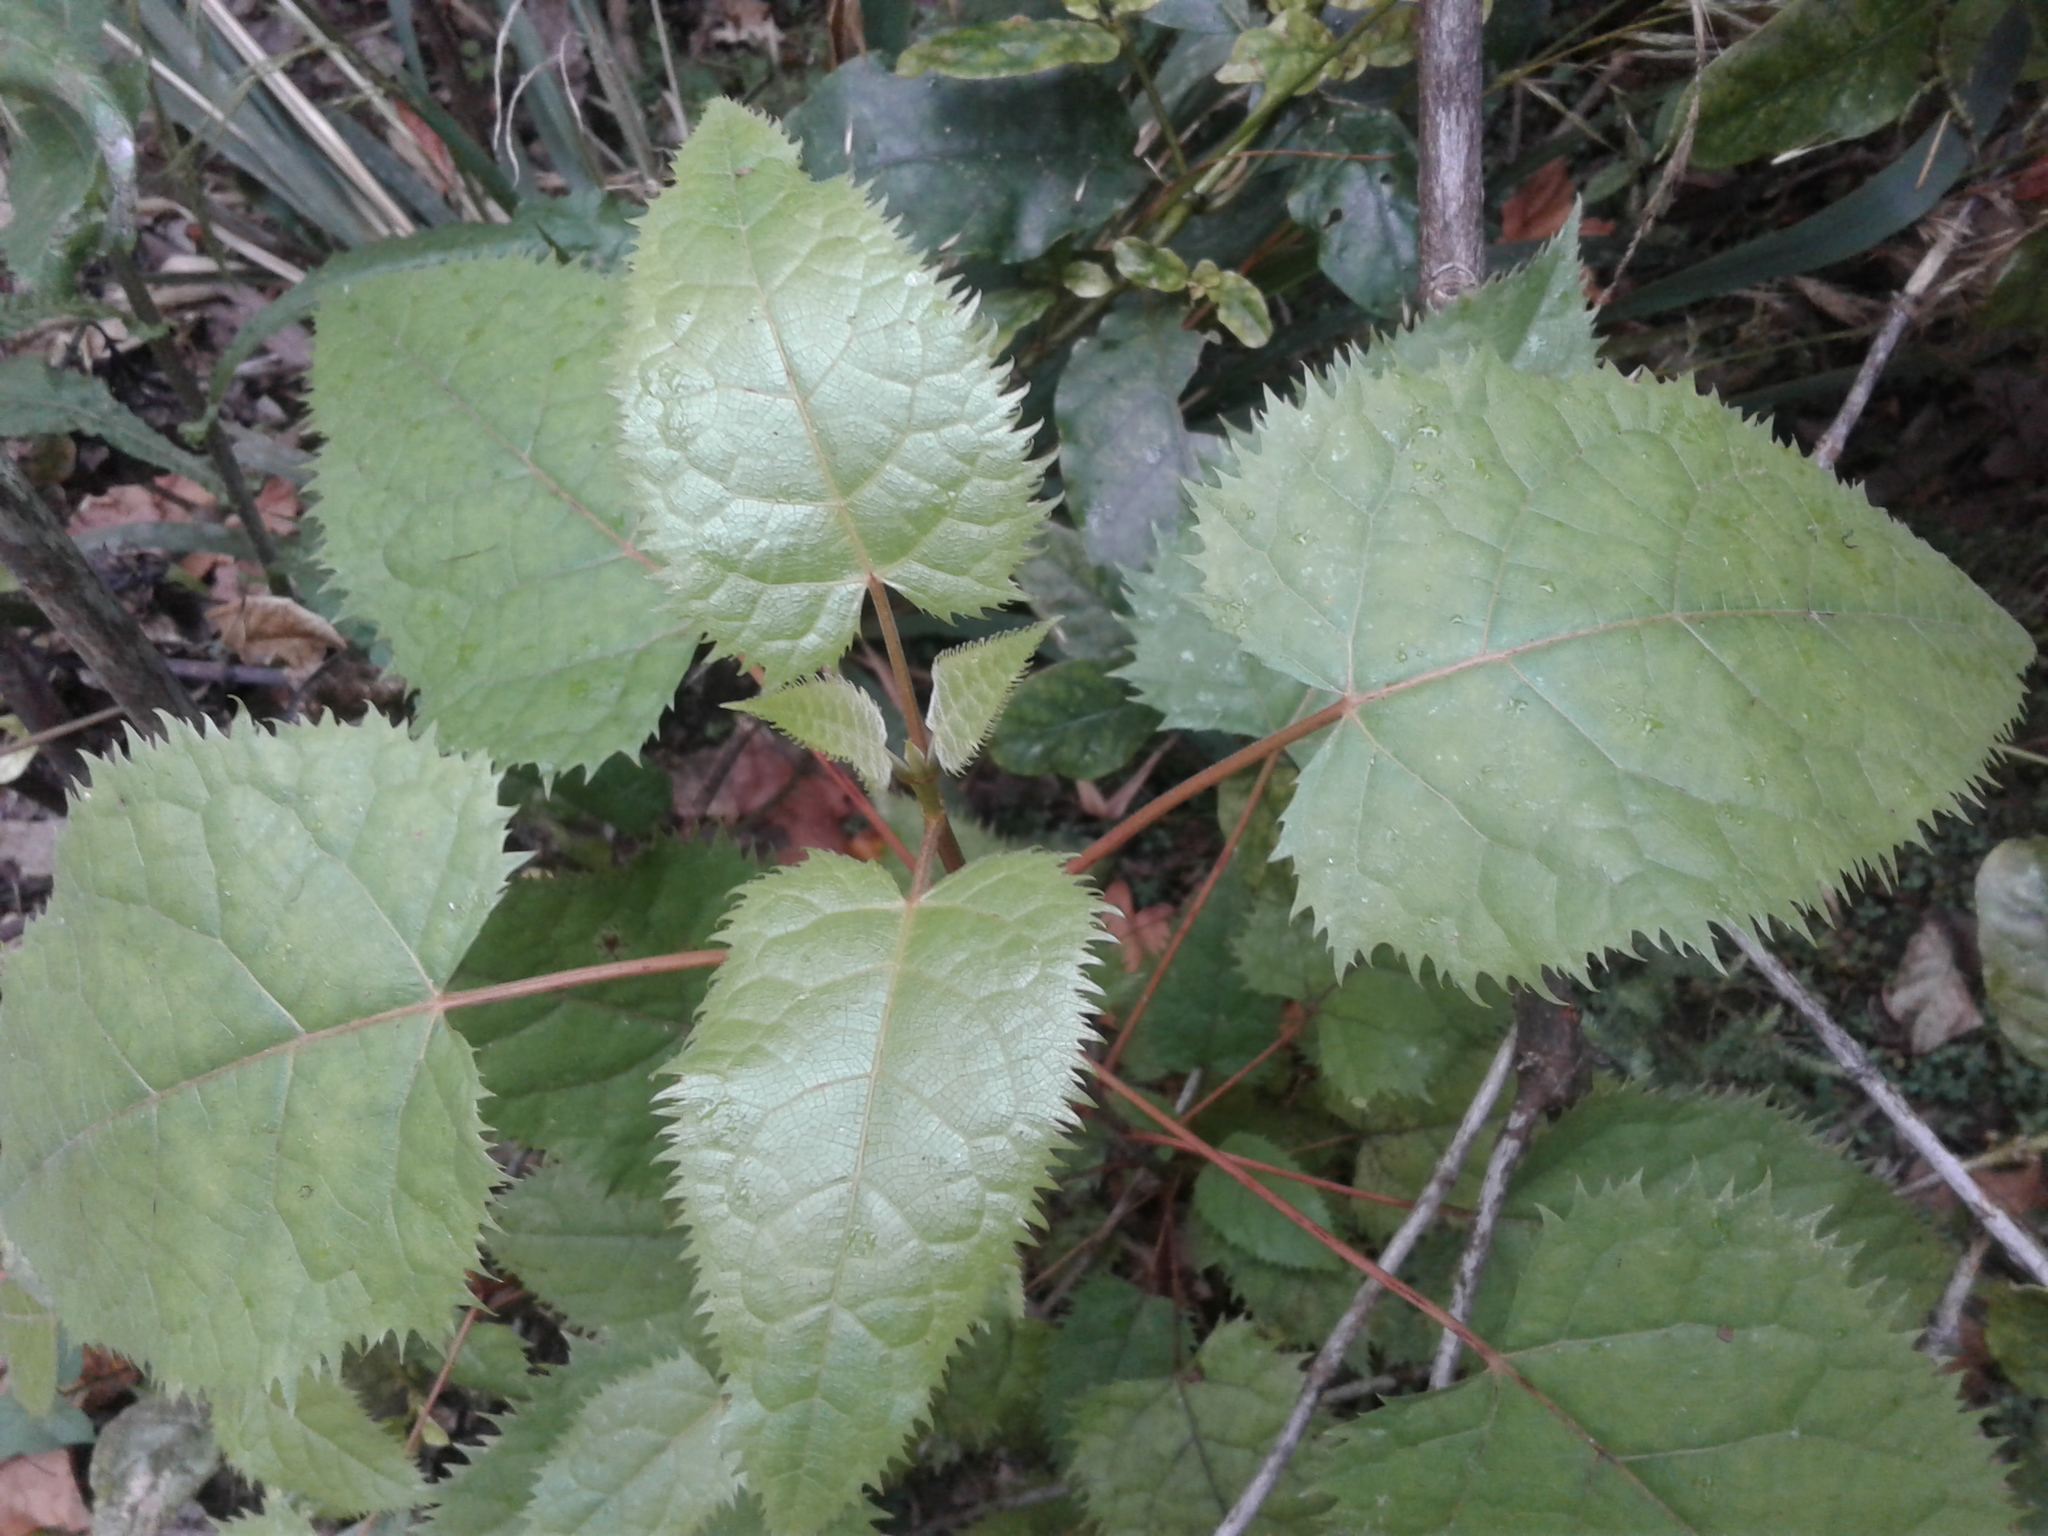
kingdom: Plantae
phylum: Tracheophyta
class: Magnoliopsida
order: Oxalidales
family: Elaeocarpaceae
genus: Aristotelia
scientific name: Aristotelia serrata
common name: New zealand wineberry
